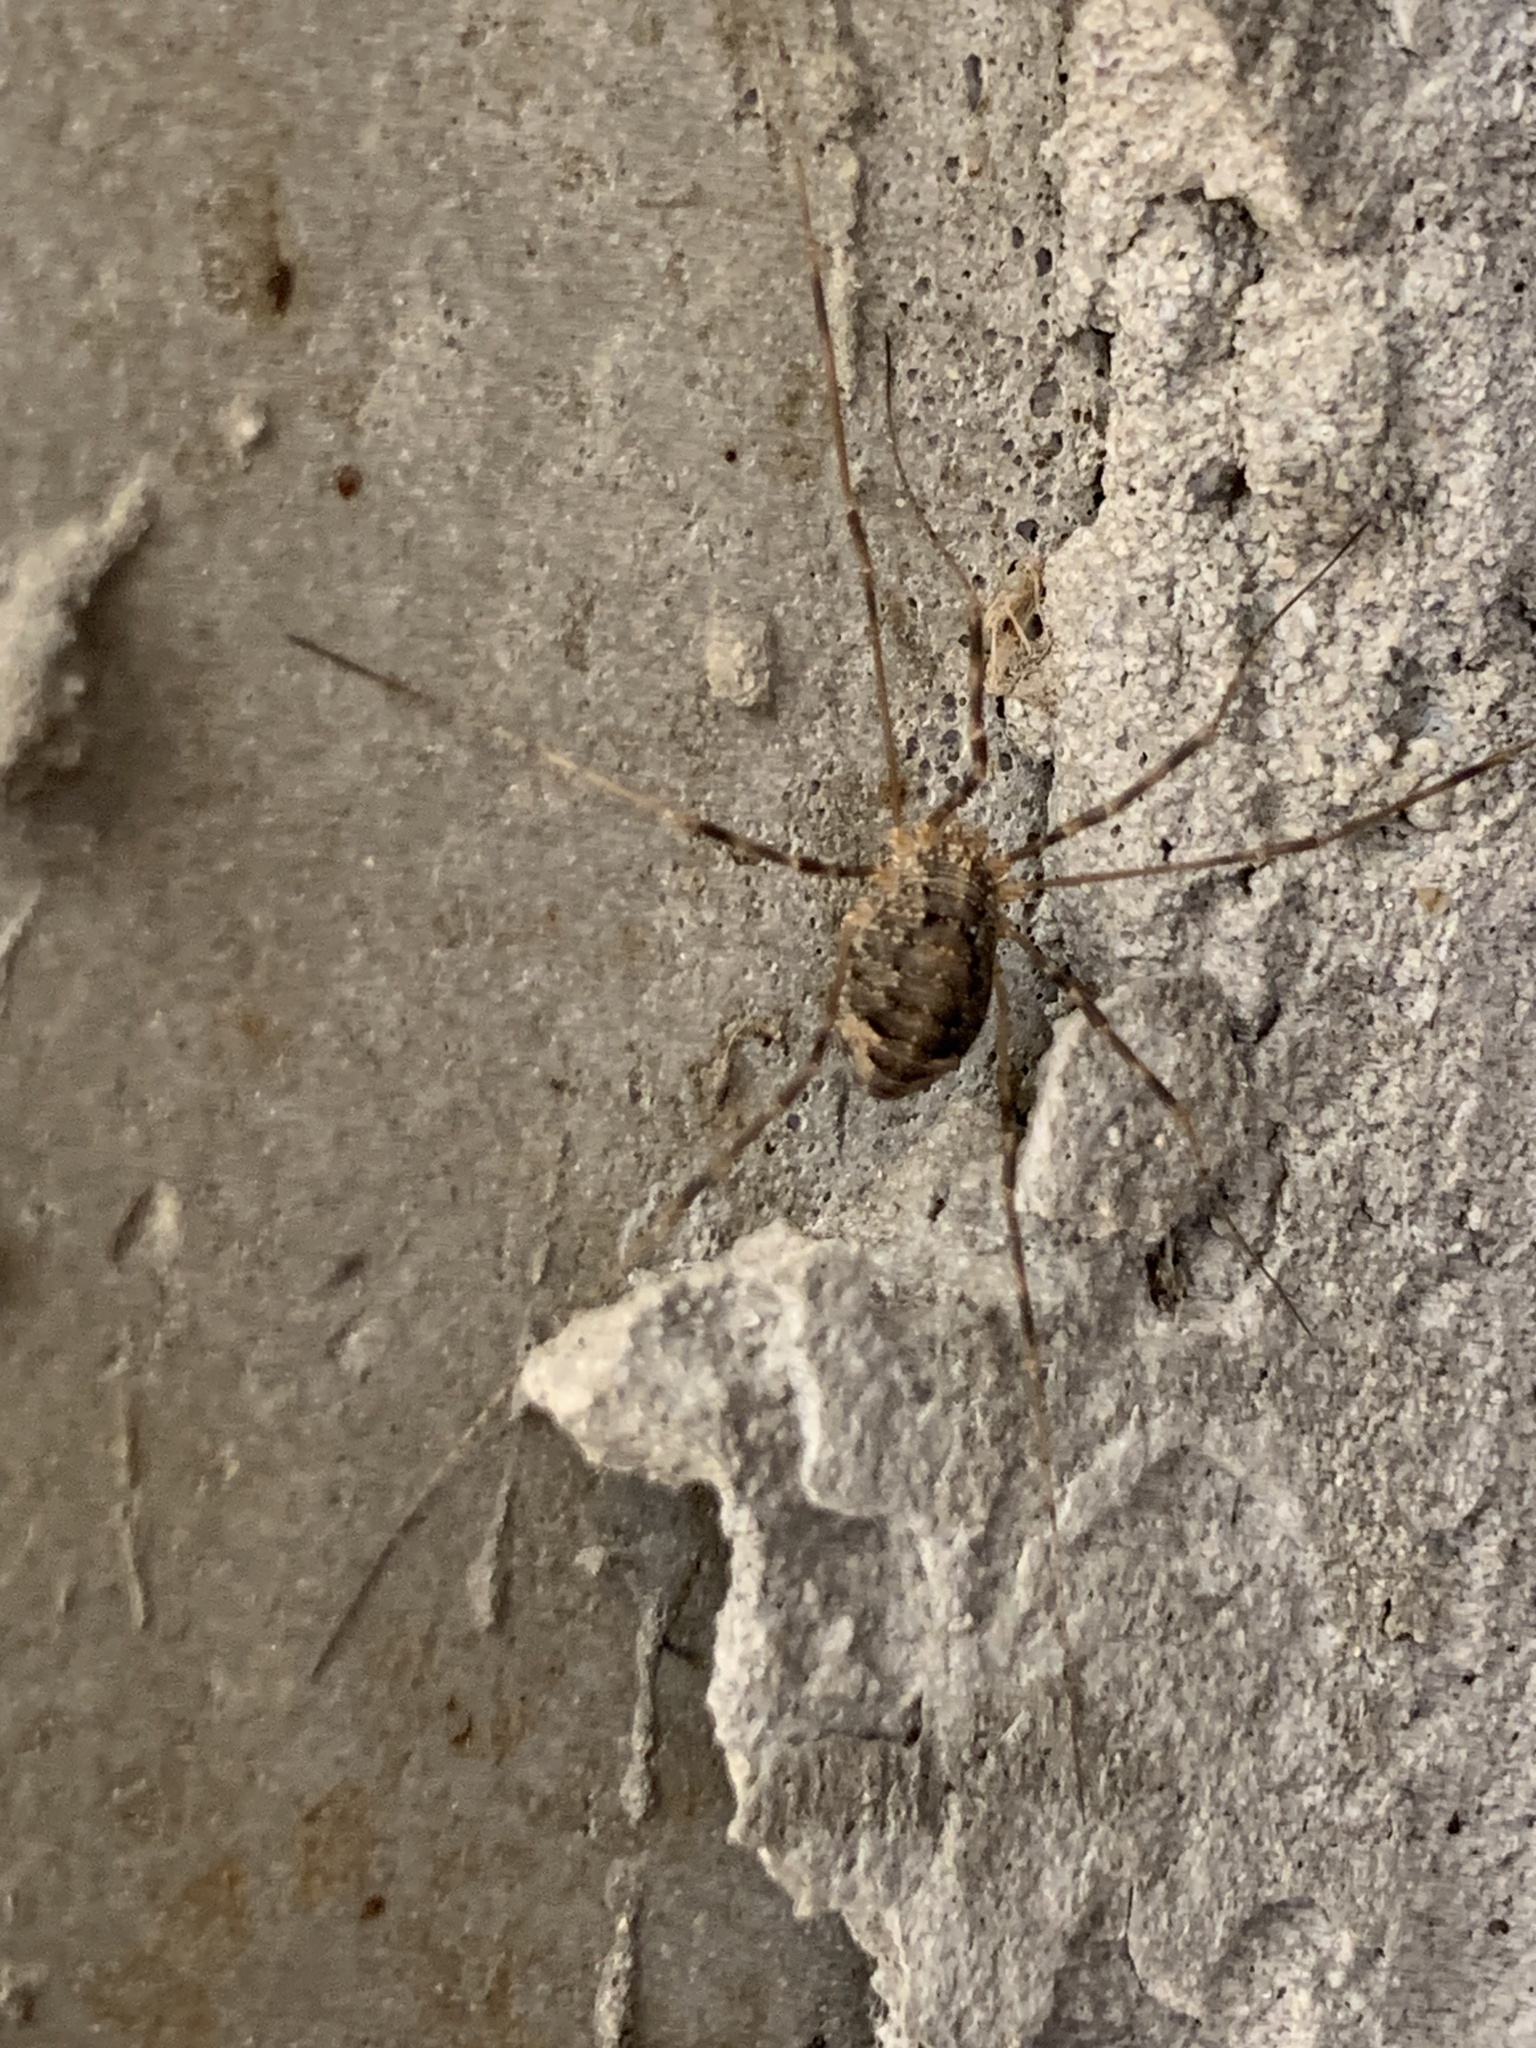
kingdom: Animalia
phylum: Arthropoda
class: Arachnida
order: Opiliones
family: Phalangiidae
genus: Opilio
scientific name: Opilio parietinus
